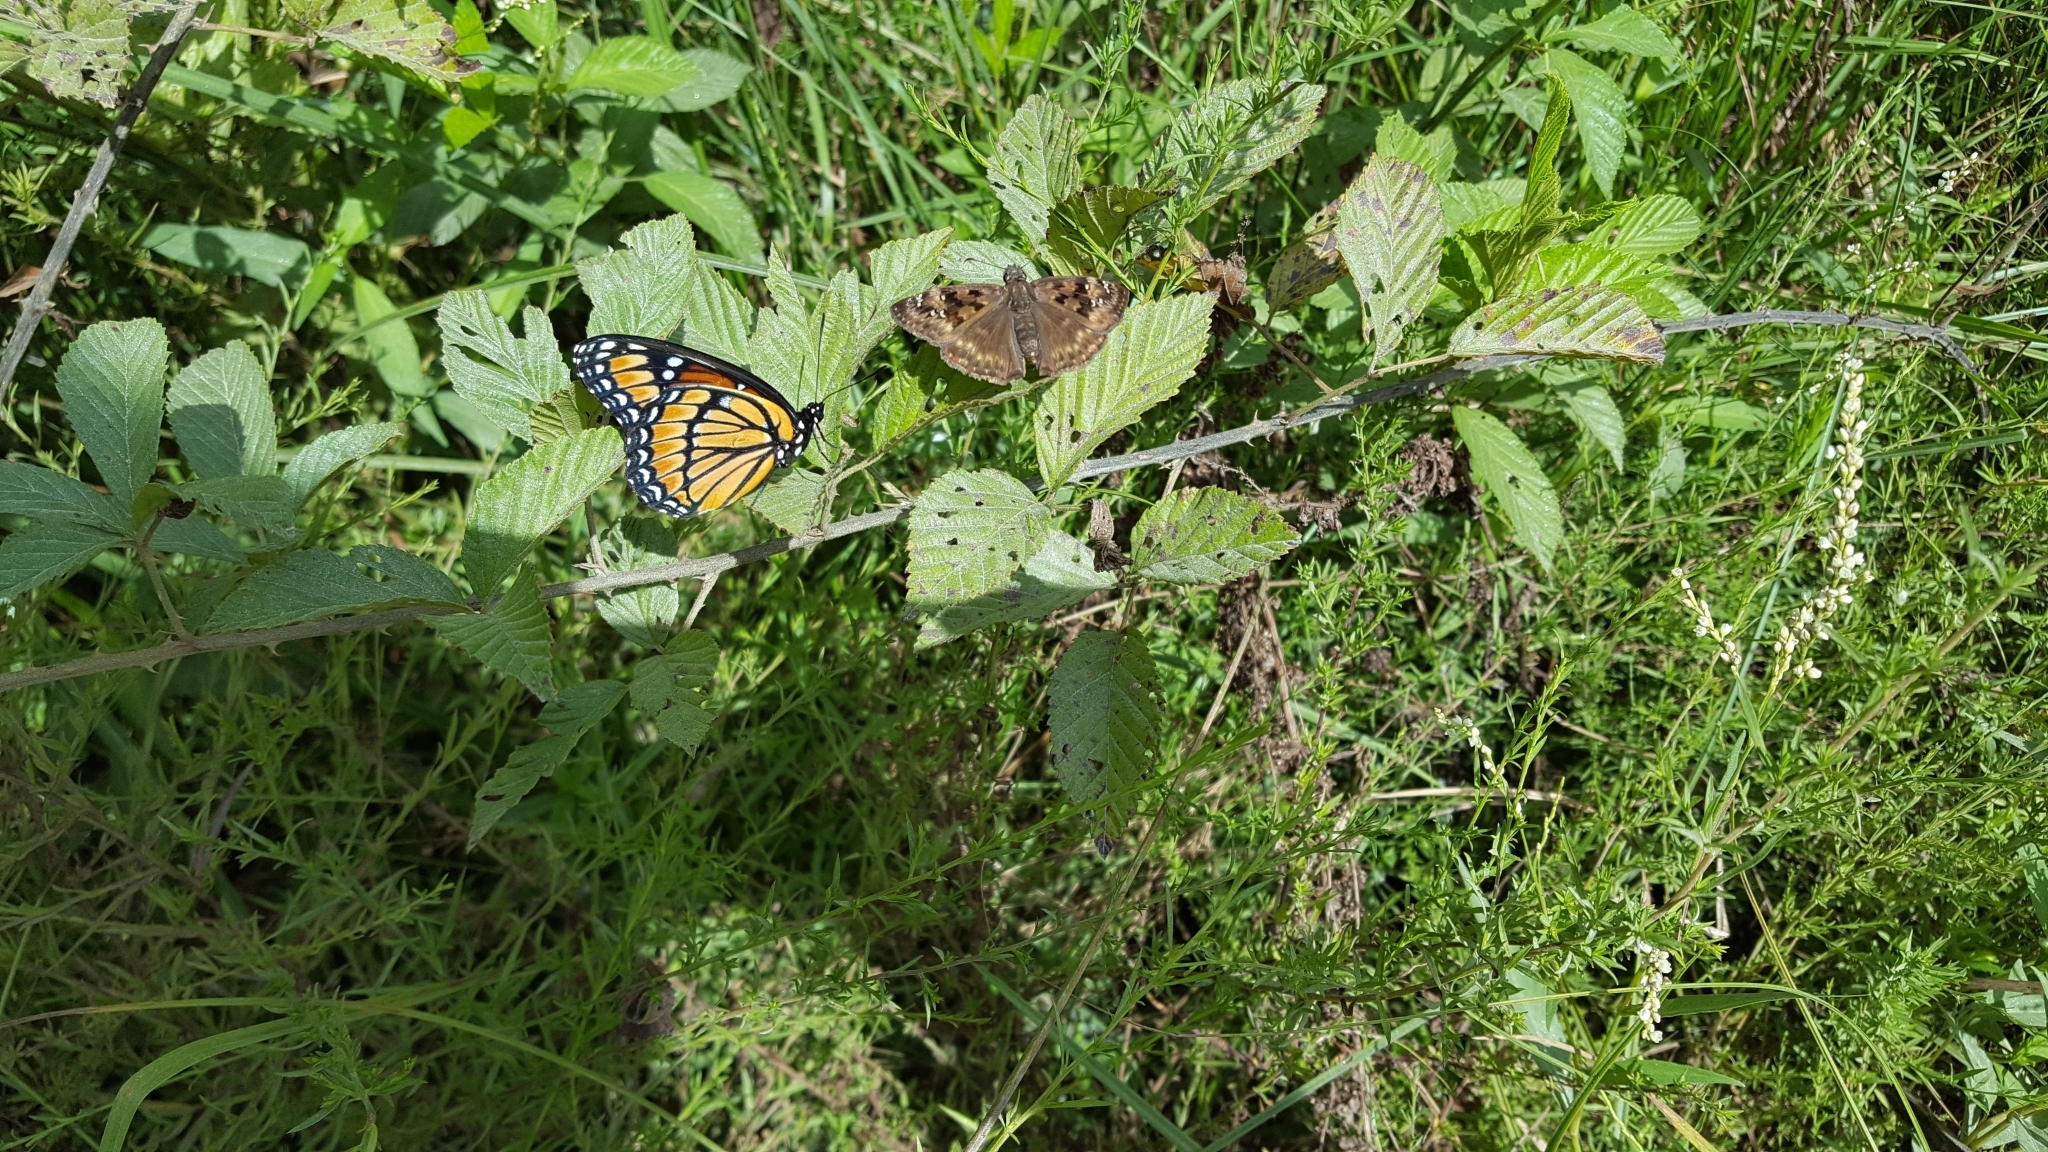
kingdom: Animalia
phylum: Arthropoda
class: Insecta
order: Lepidoptera
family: Hesperiidae
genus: Erynnis
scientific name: Erynnis horatius
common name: Horace's duskywing
